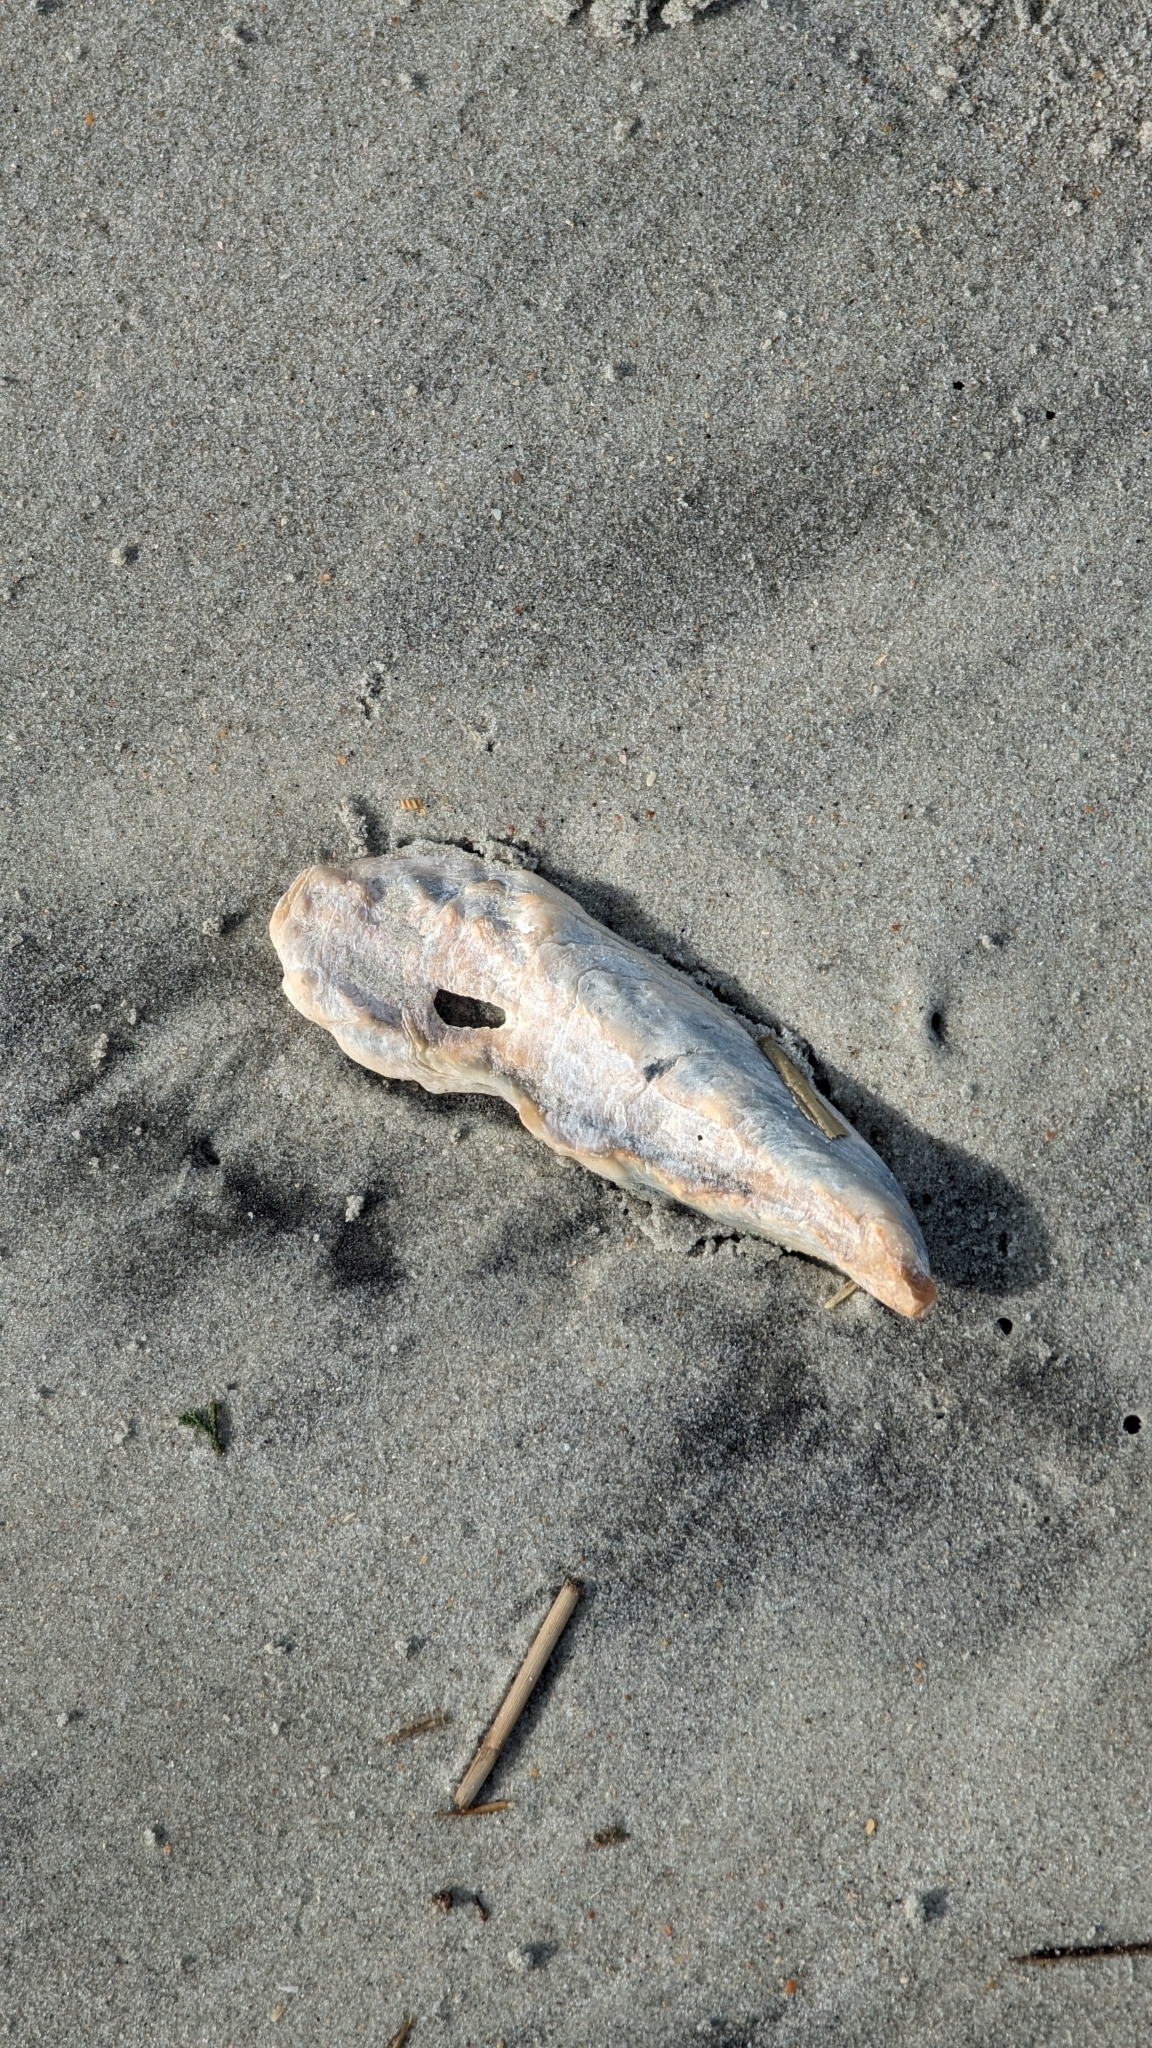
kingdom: Animalia
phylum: Mollusca
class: Bivalvia
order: Ostreida
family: Ostreidae
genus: Crassostrea
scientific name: Crassostrea virginica
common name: American oyster
